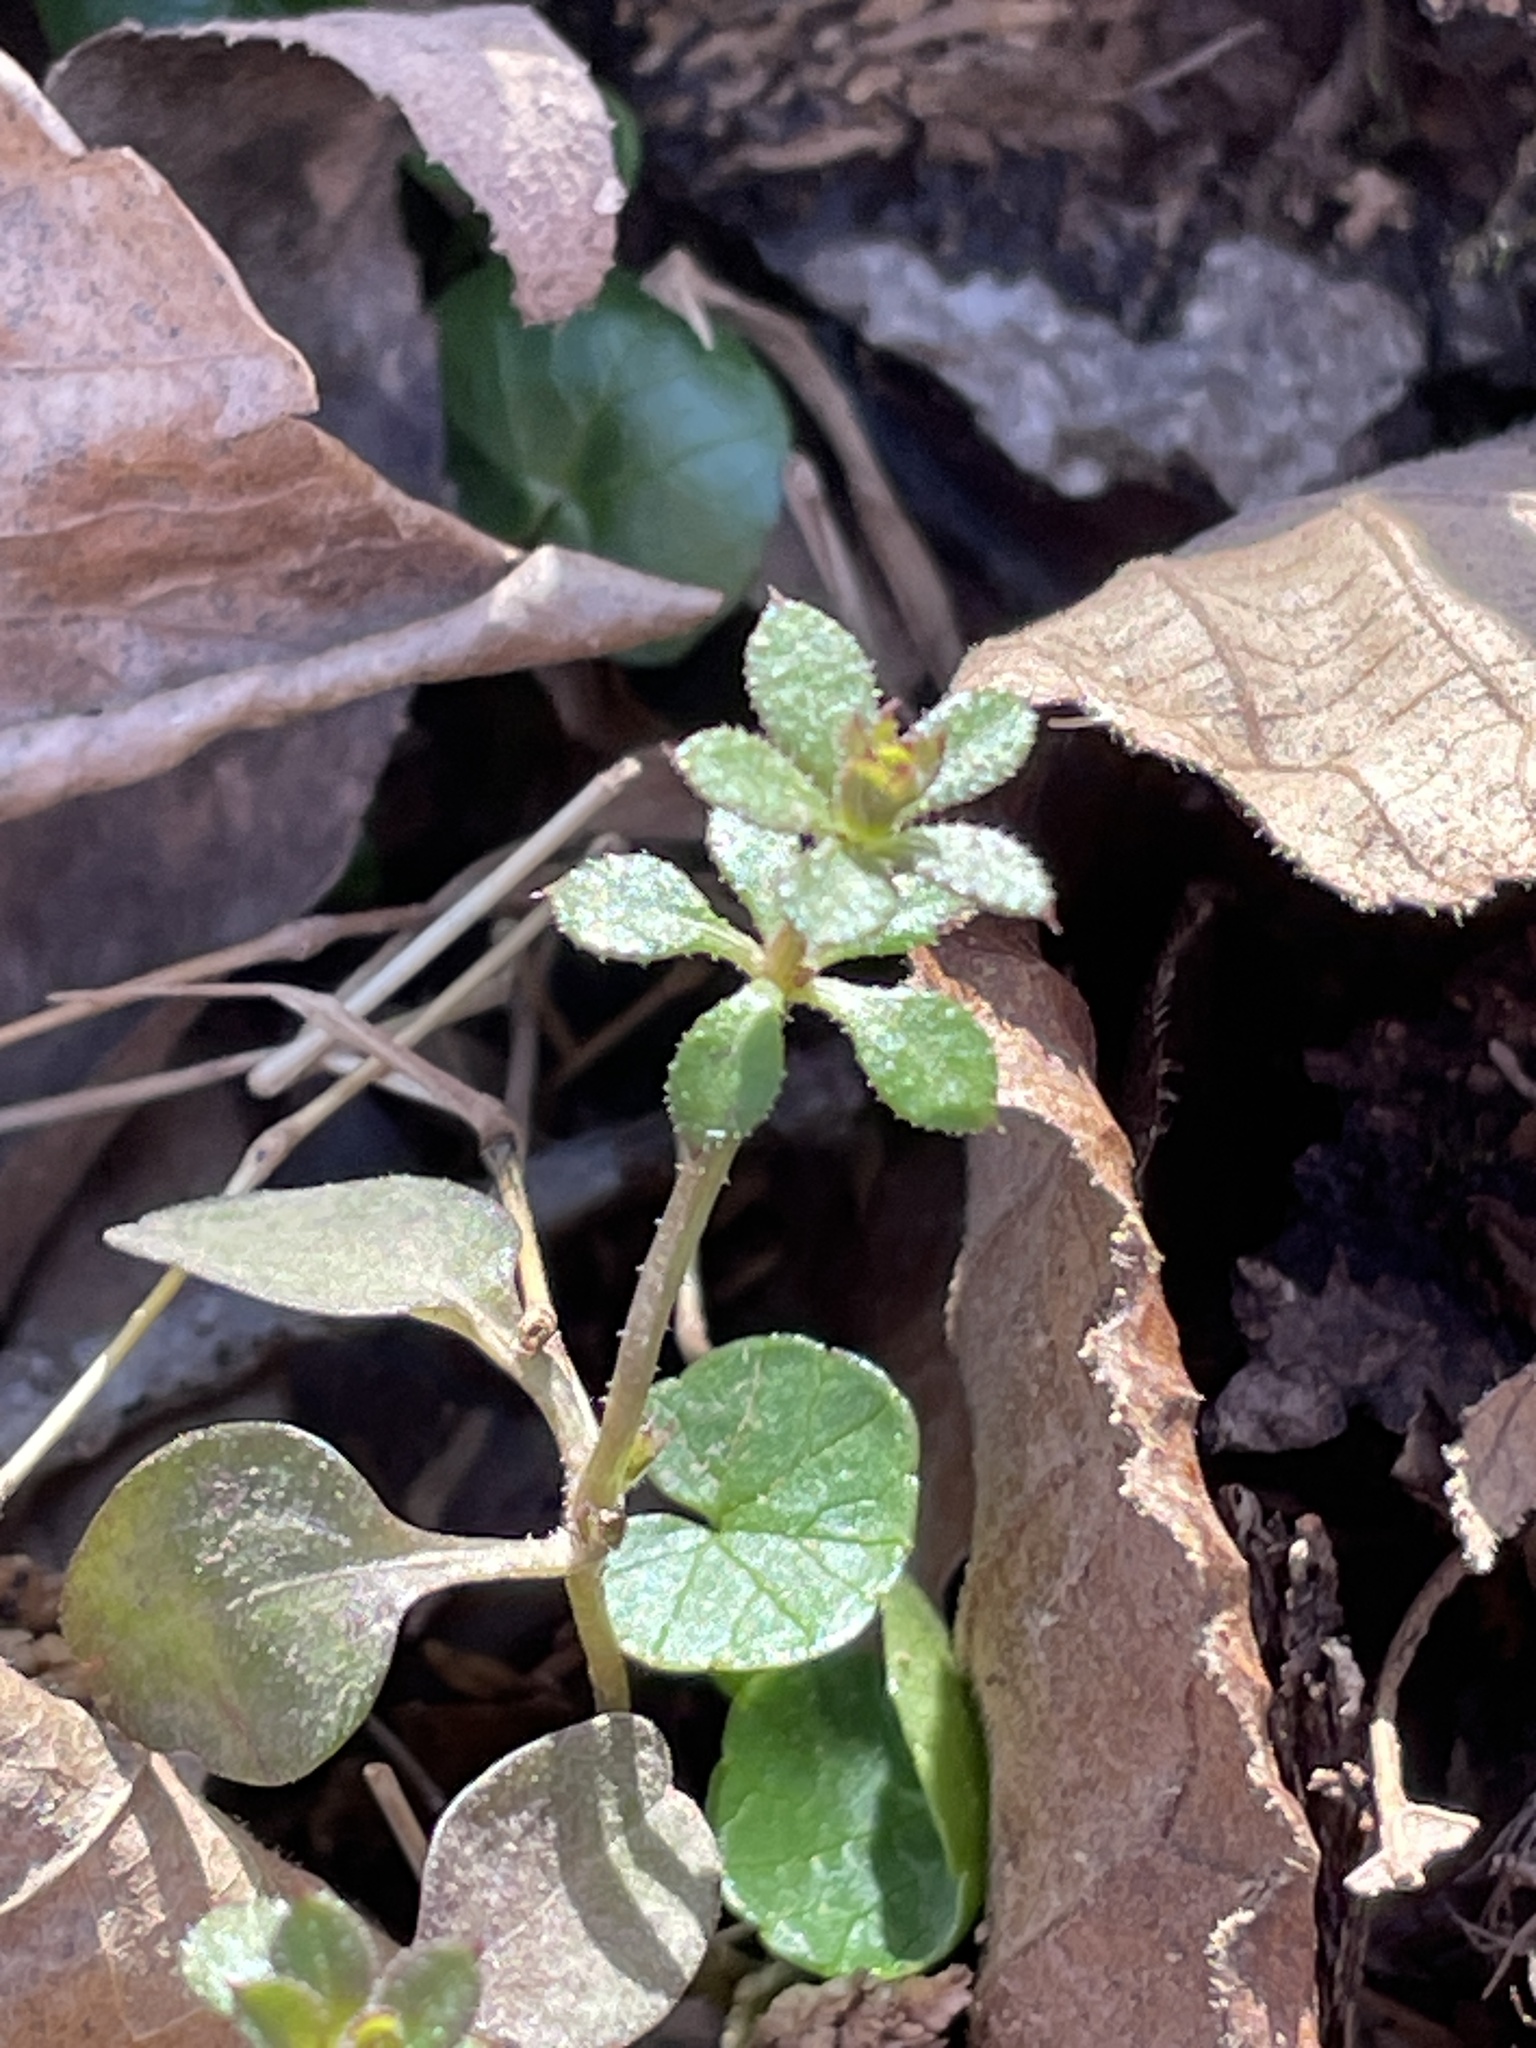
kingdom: Plantae
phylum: Tracheophyta
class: Magnoliopsida
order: Gentianales
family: Rubiaceae
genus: Galium
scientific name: Galium aparine
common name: Cleavers
